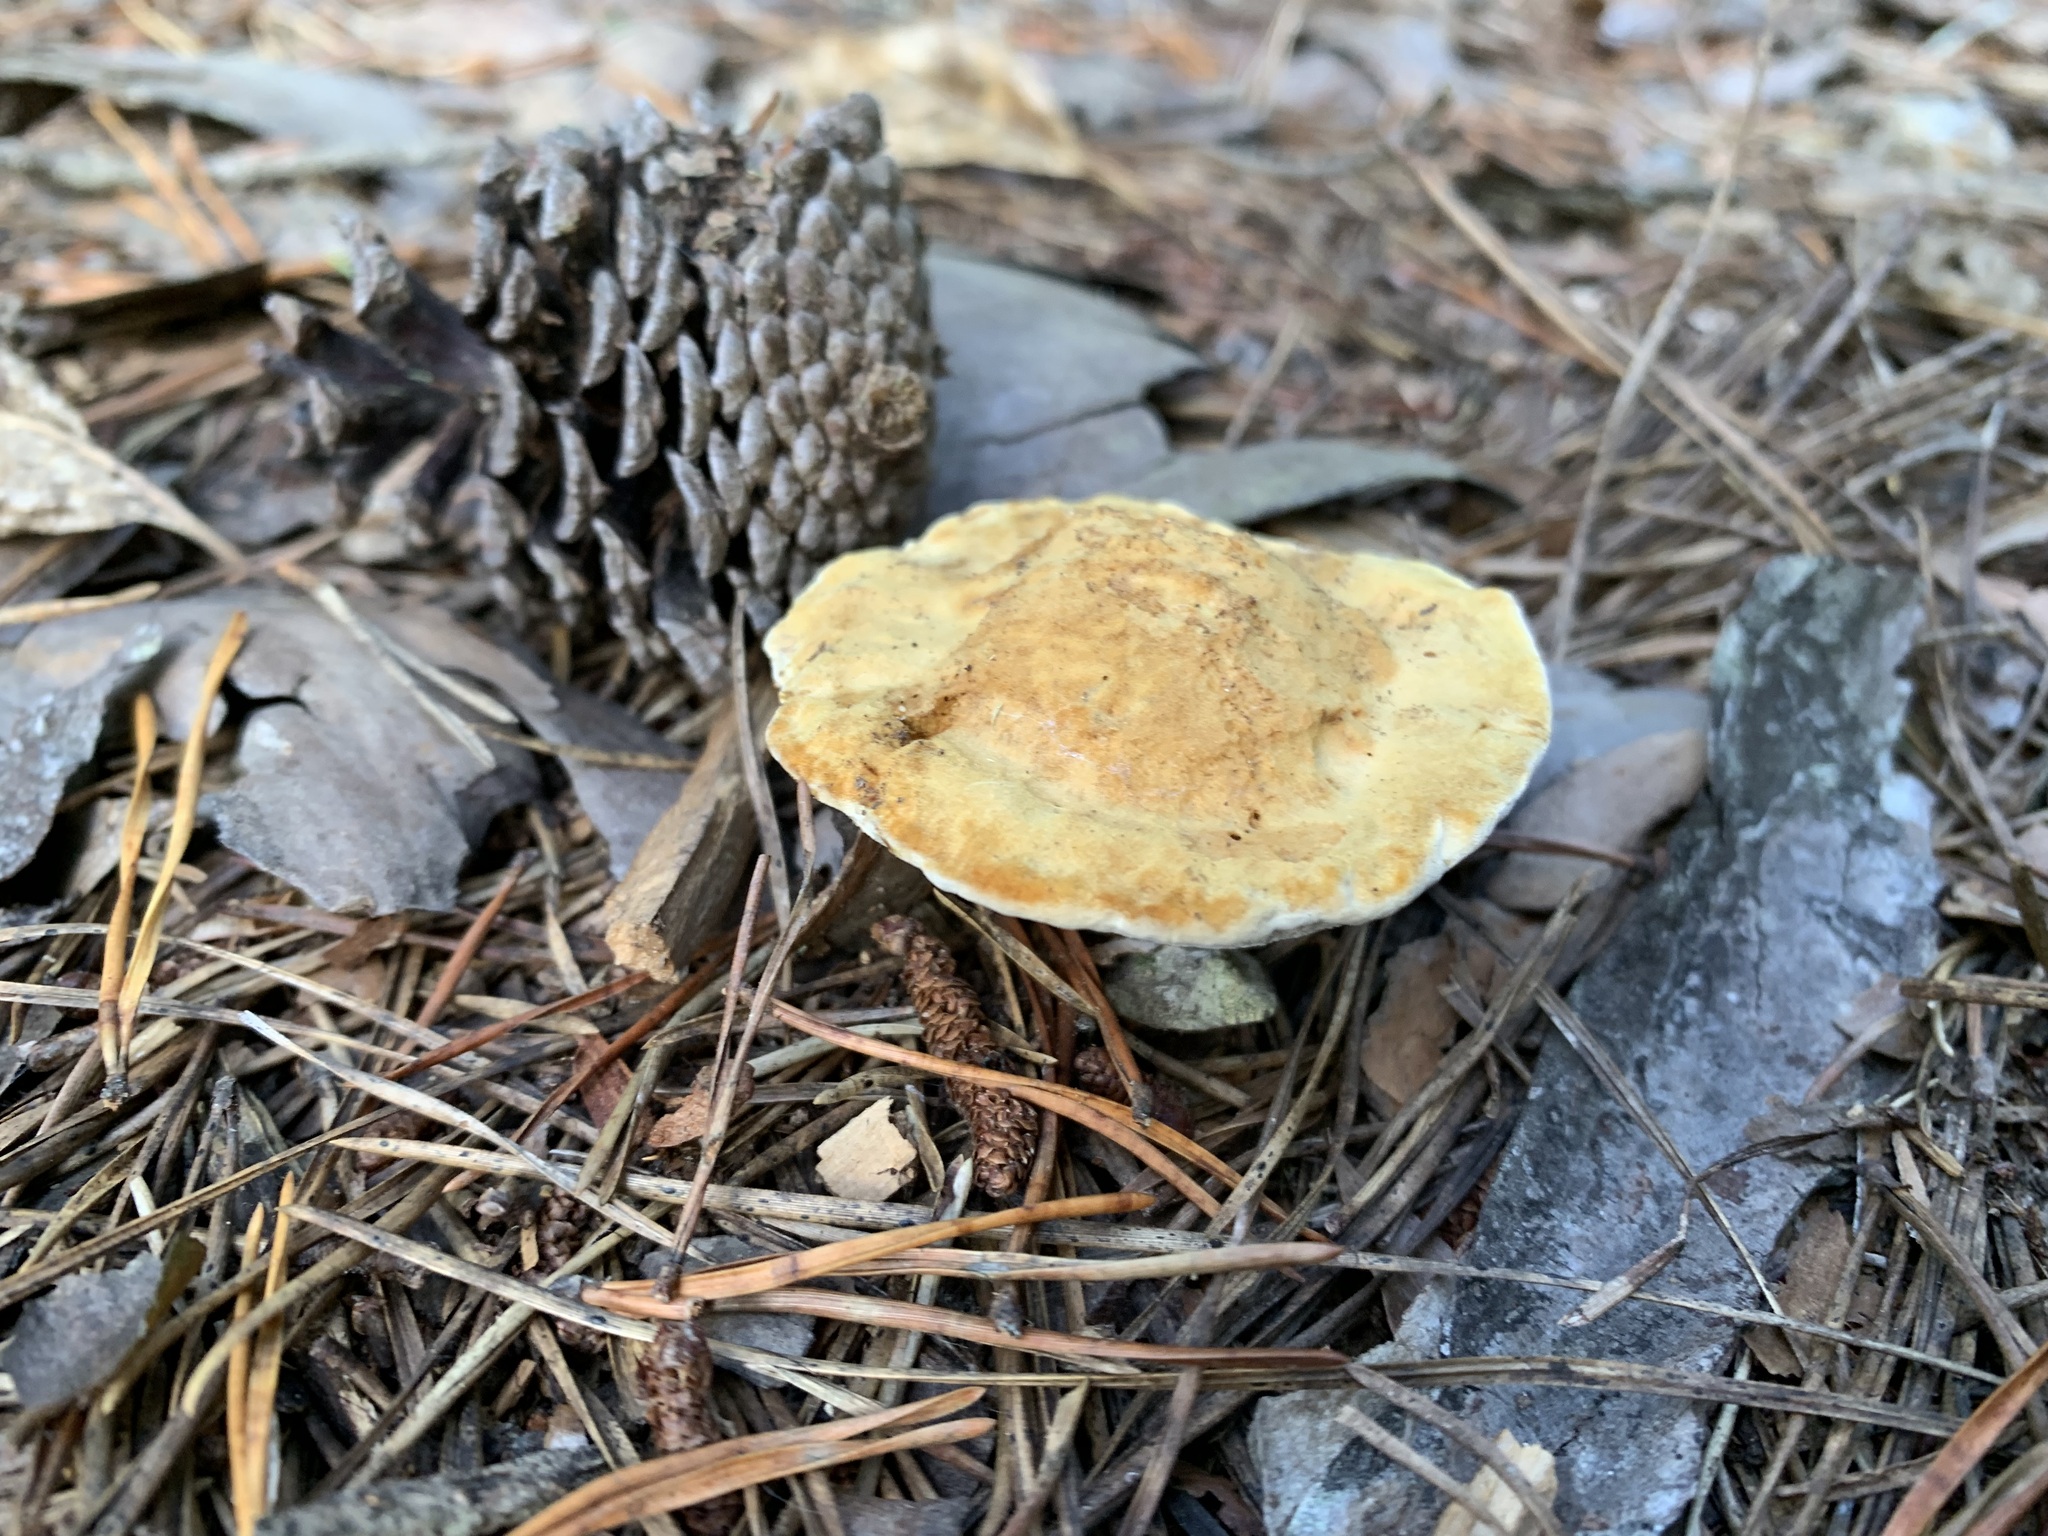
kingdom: Fungi
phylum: Basidiomycota
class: Agaricomycetes
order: Hymenochaetales
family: Hymenochaetaceae
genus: Onnia
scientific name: Onnia subtriquetra
